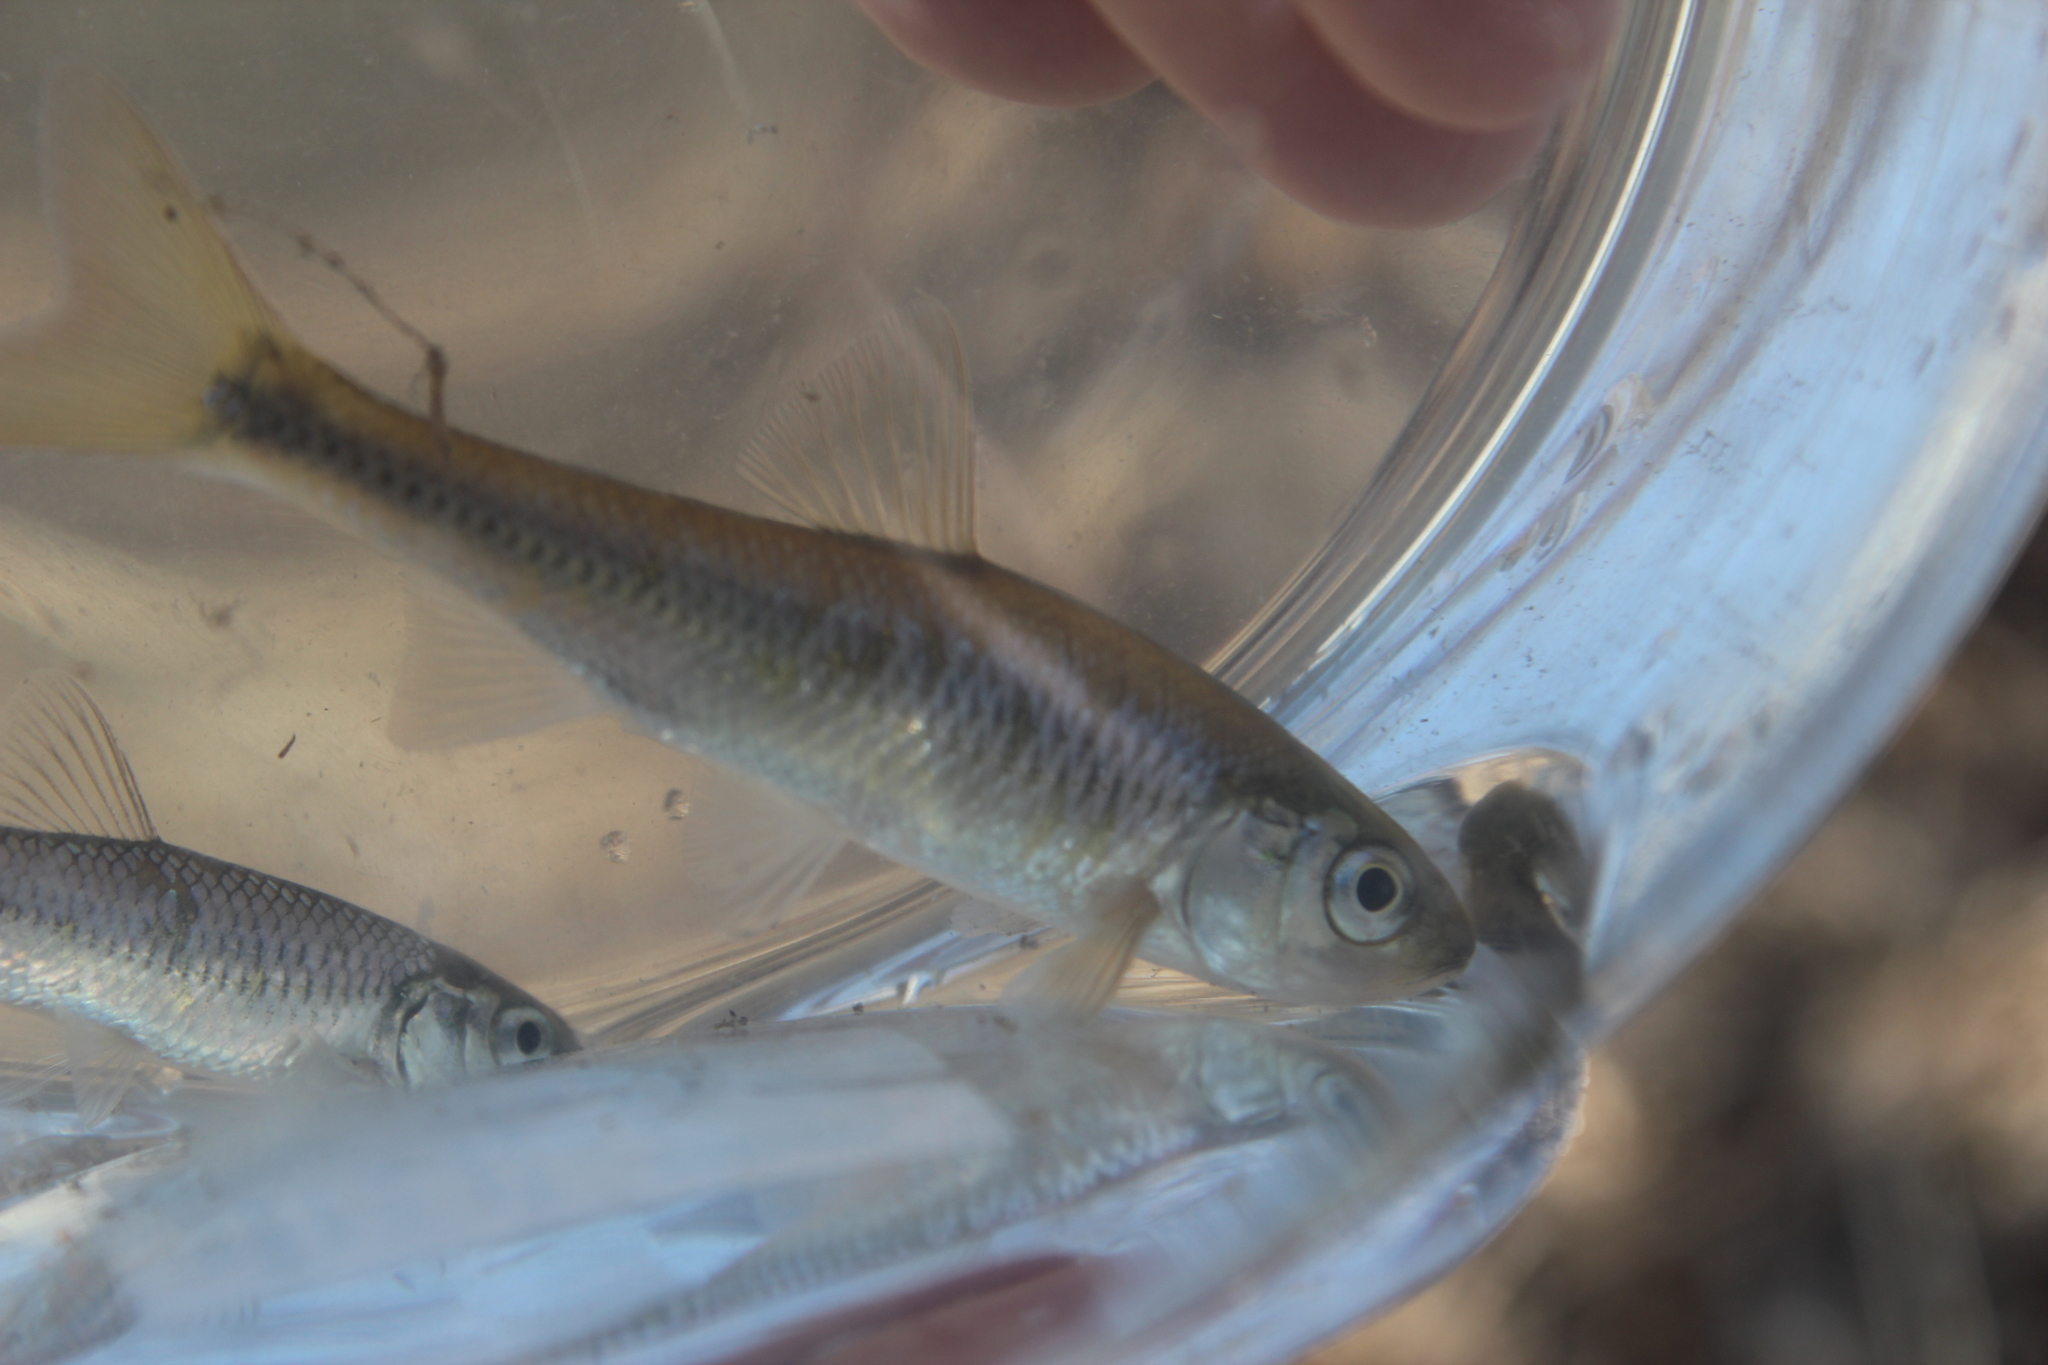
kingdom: Animalia
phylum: Chordata
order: Cypriniformes
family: Cyprinidae
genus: Luxilus
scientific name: Luxilus cornutus
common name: Common shiner
